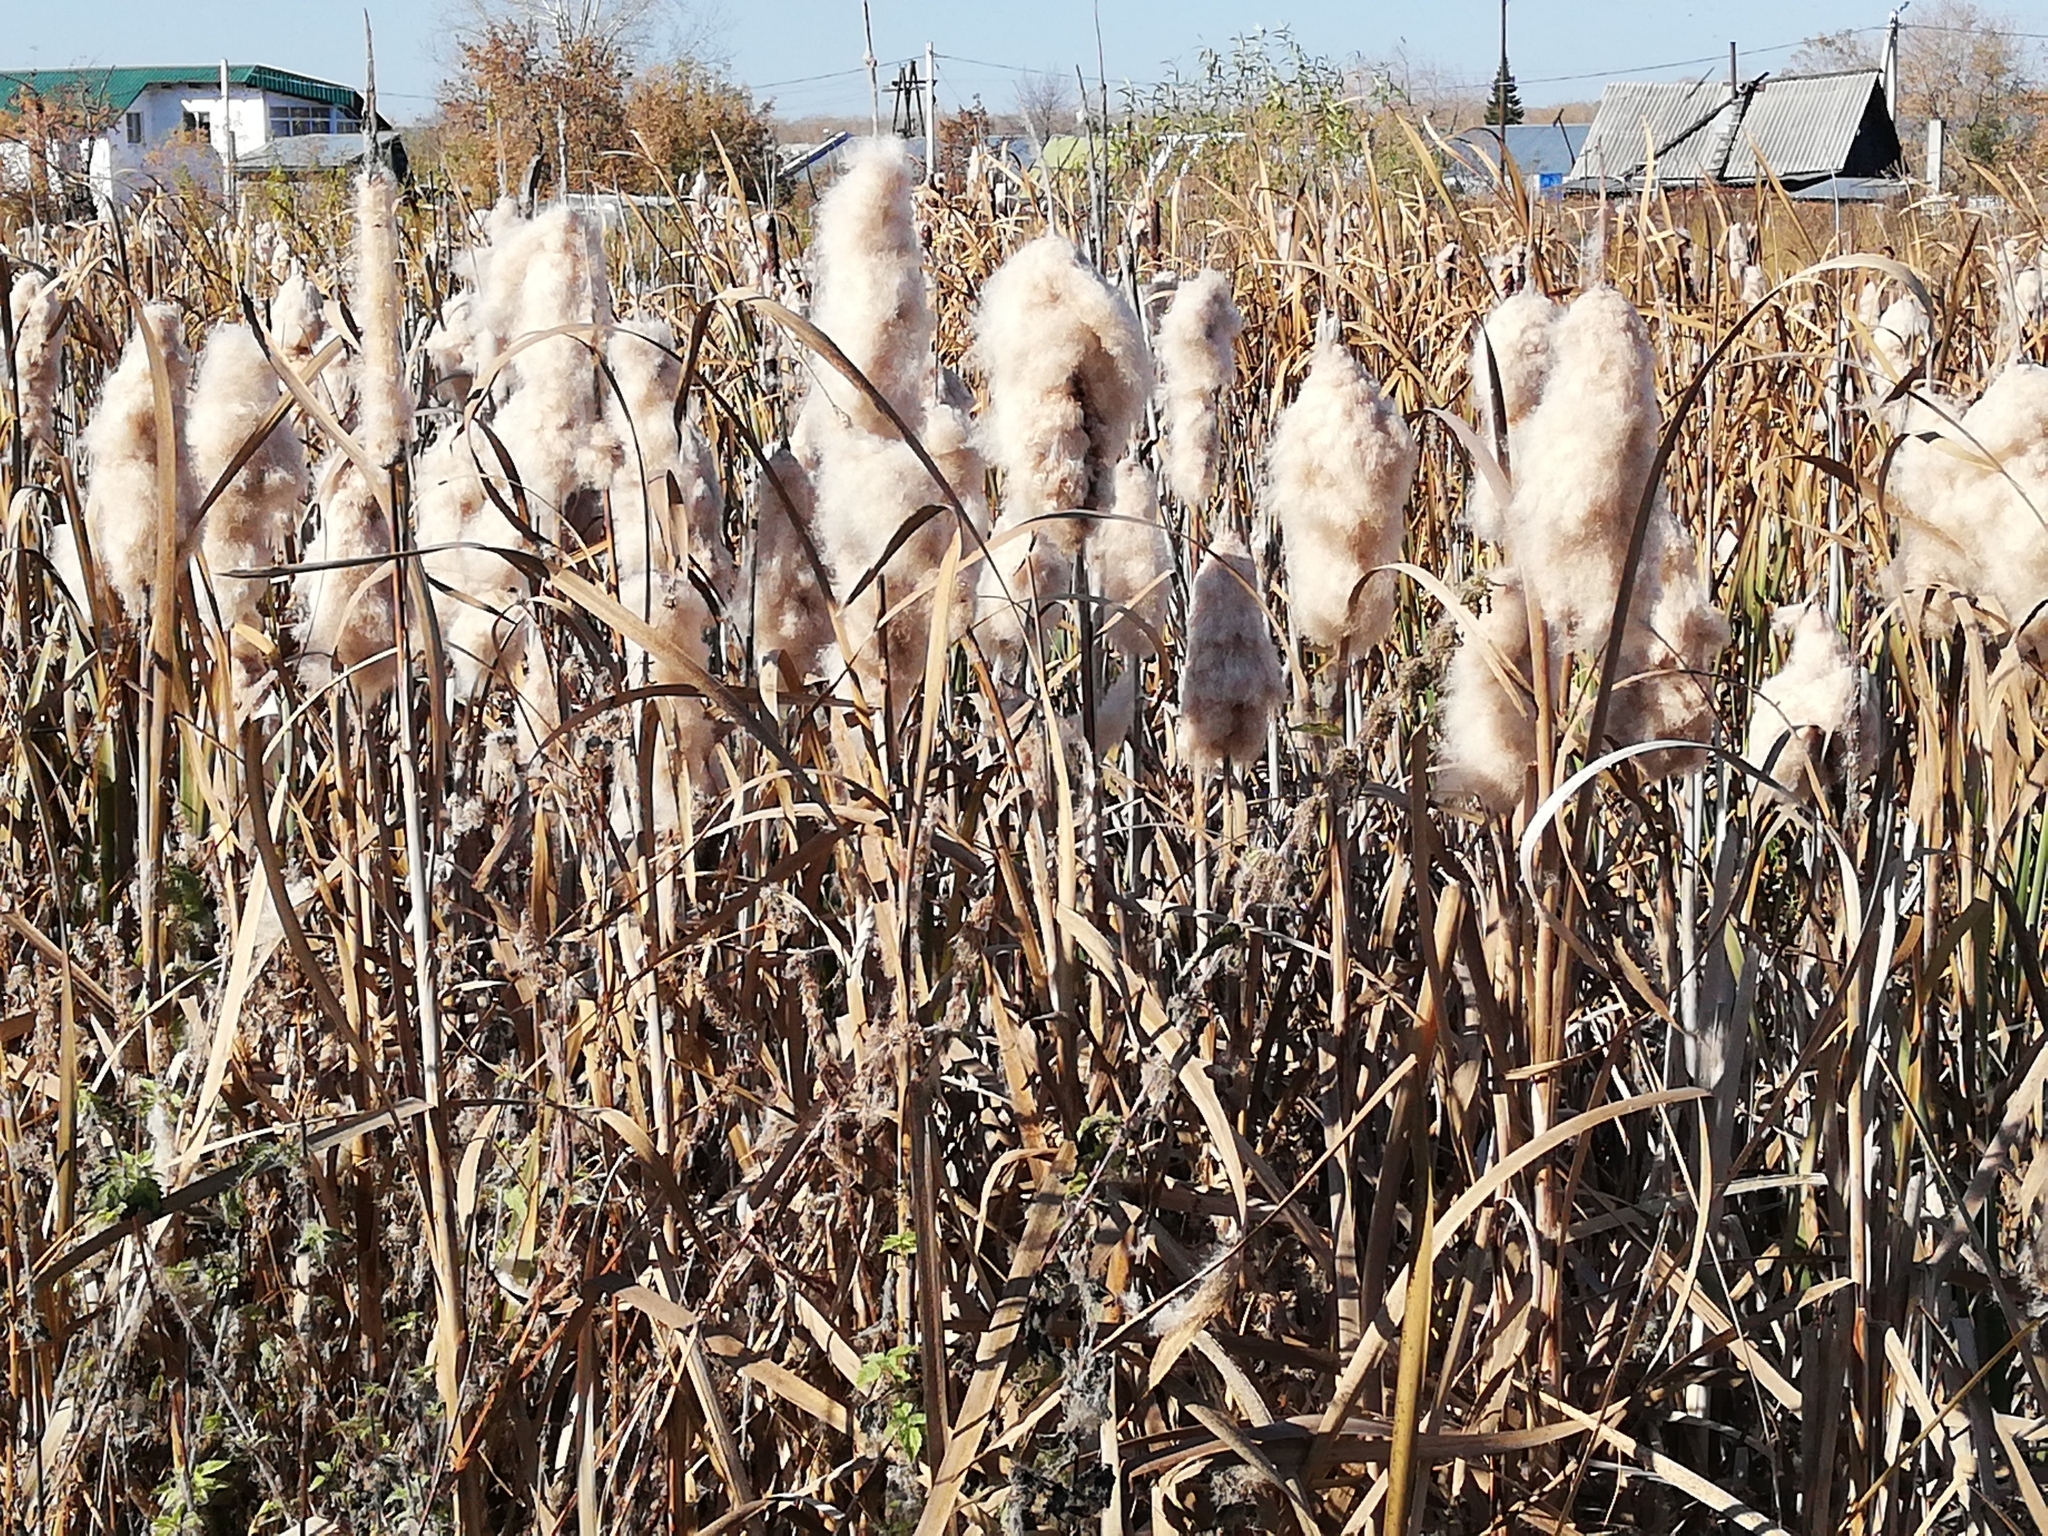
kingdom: Plantae
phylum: Tracheophyta
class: Liliopsida
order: Poales
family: Typhaceae
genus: Typha
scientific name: Typha latifolia
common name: Broadleaf cattail
